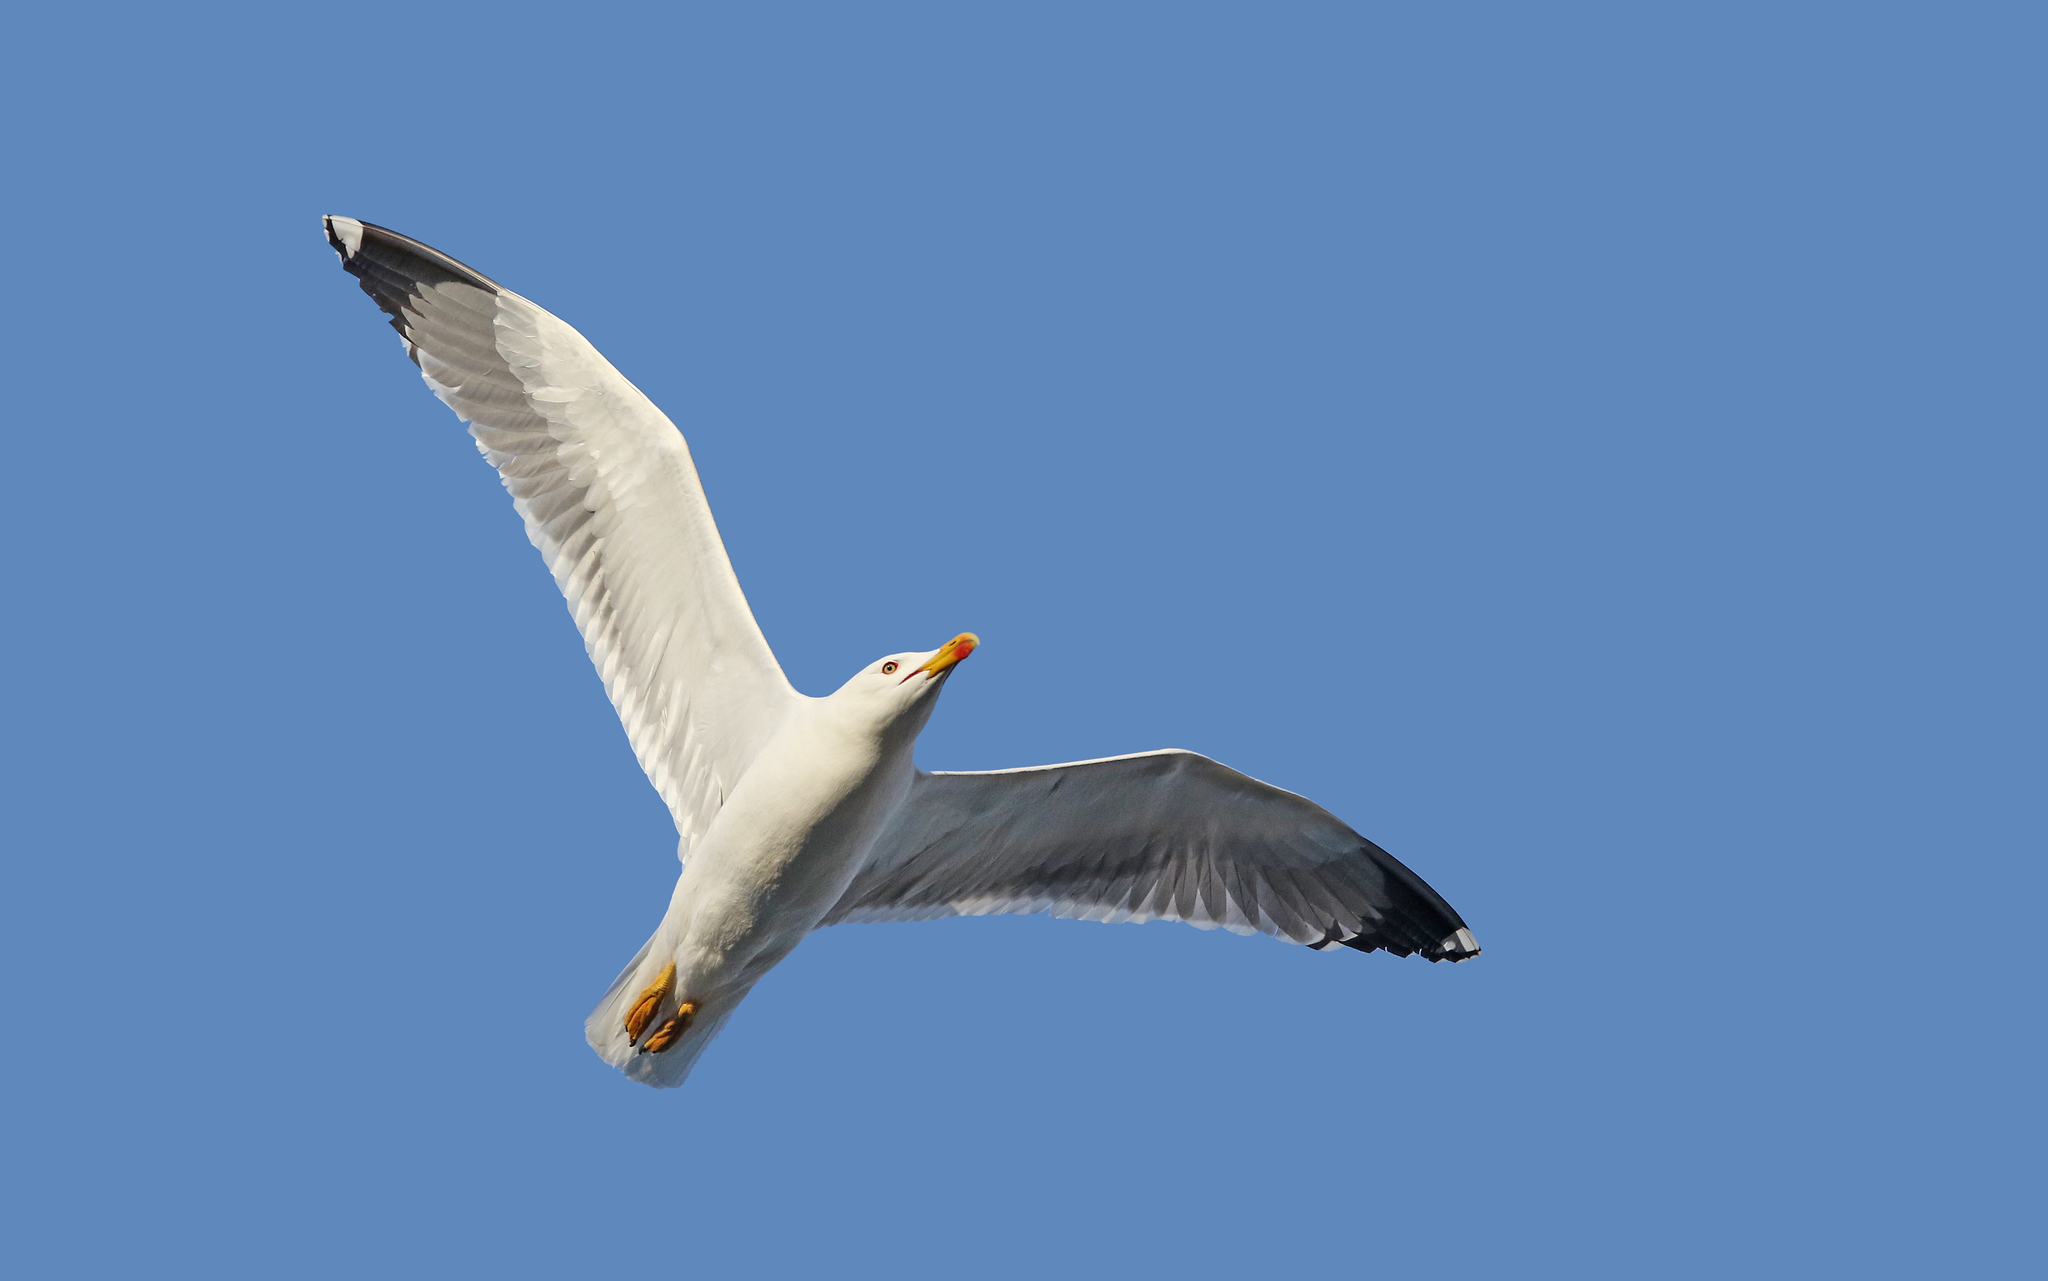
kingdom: Animalia
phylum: Chordata
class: Aves
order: Charadriiformes
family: Laridae
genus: Larus
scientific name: Larus michahellis
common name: Yellow-legged gull
